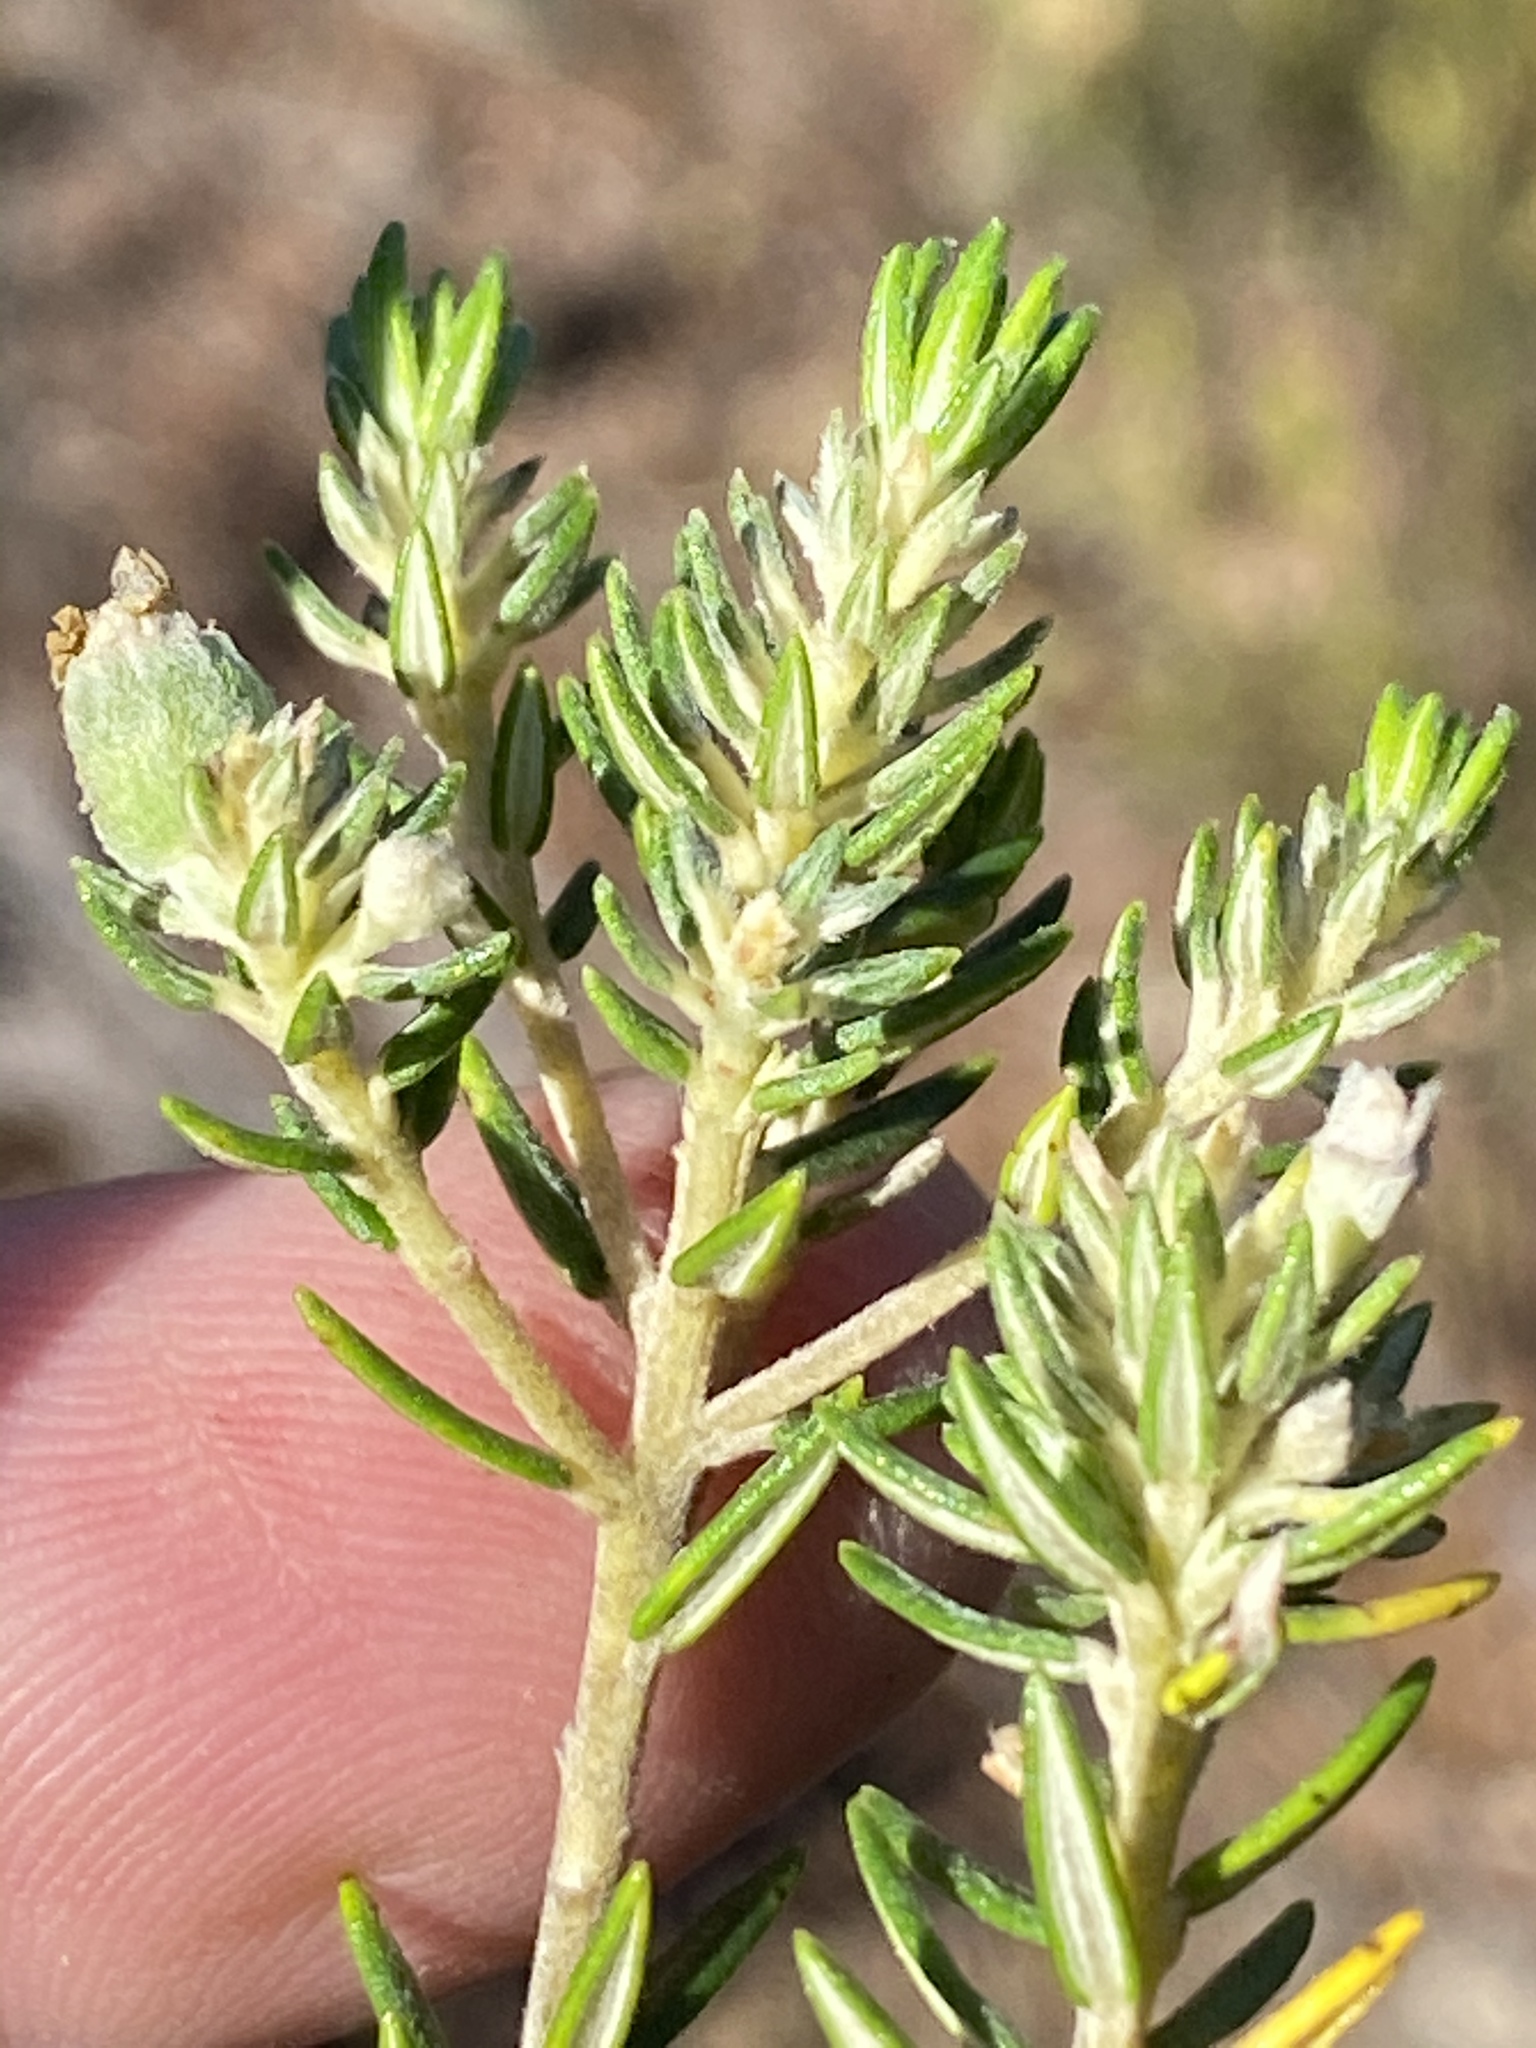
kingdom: Plantae
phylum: Tracheophyta
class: Magnoliopsida
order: Rosales
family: Rhamnaceae
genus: Phylica
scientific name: Phylica purpurea
